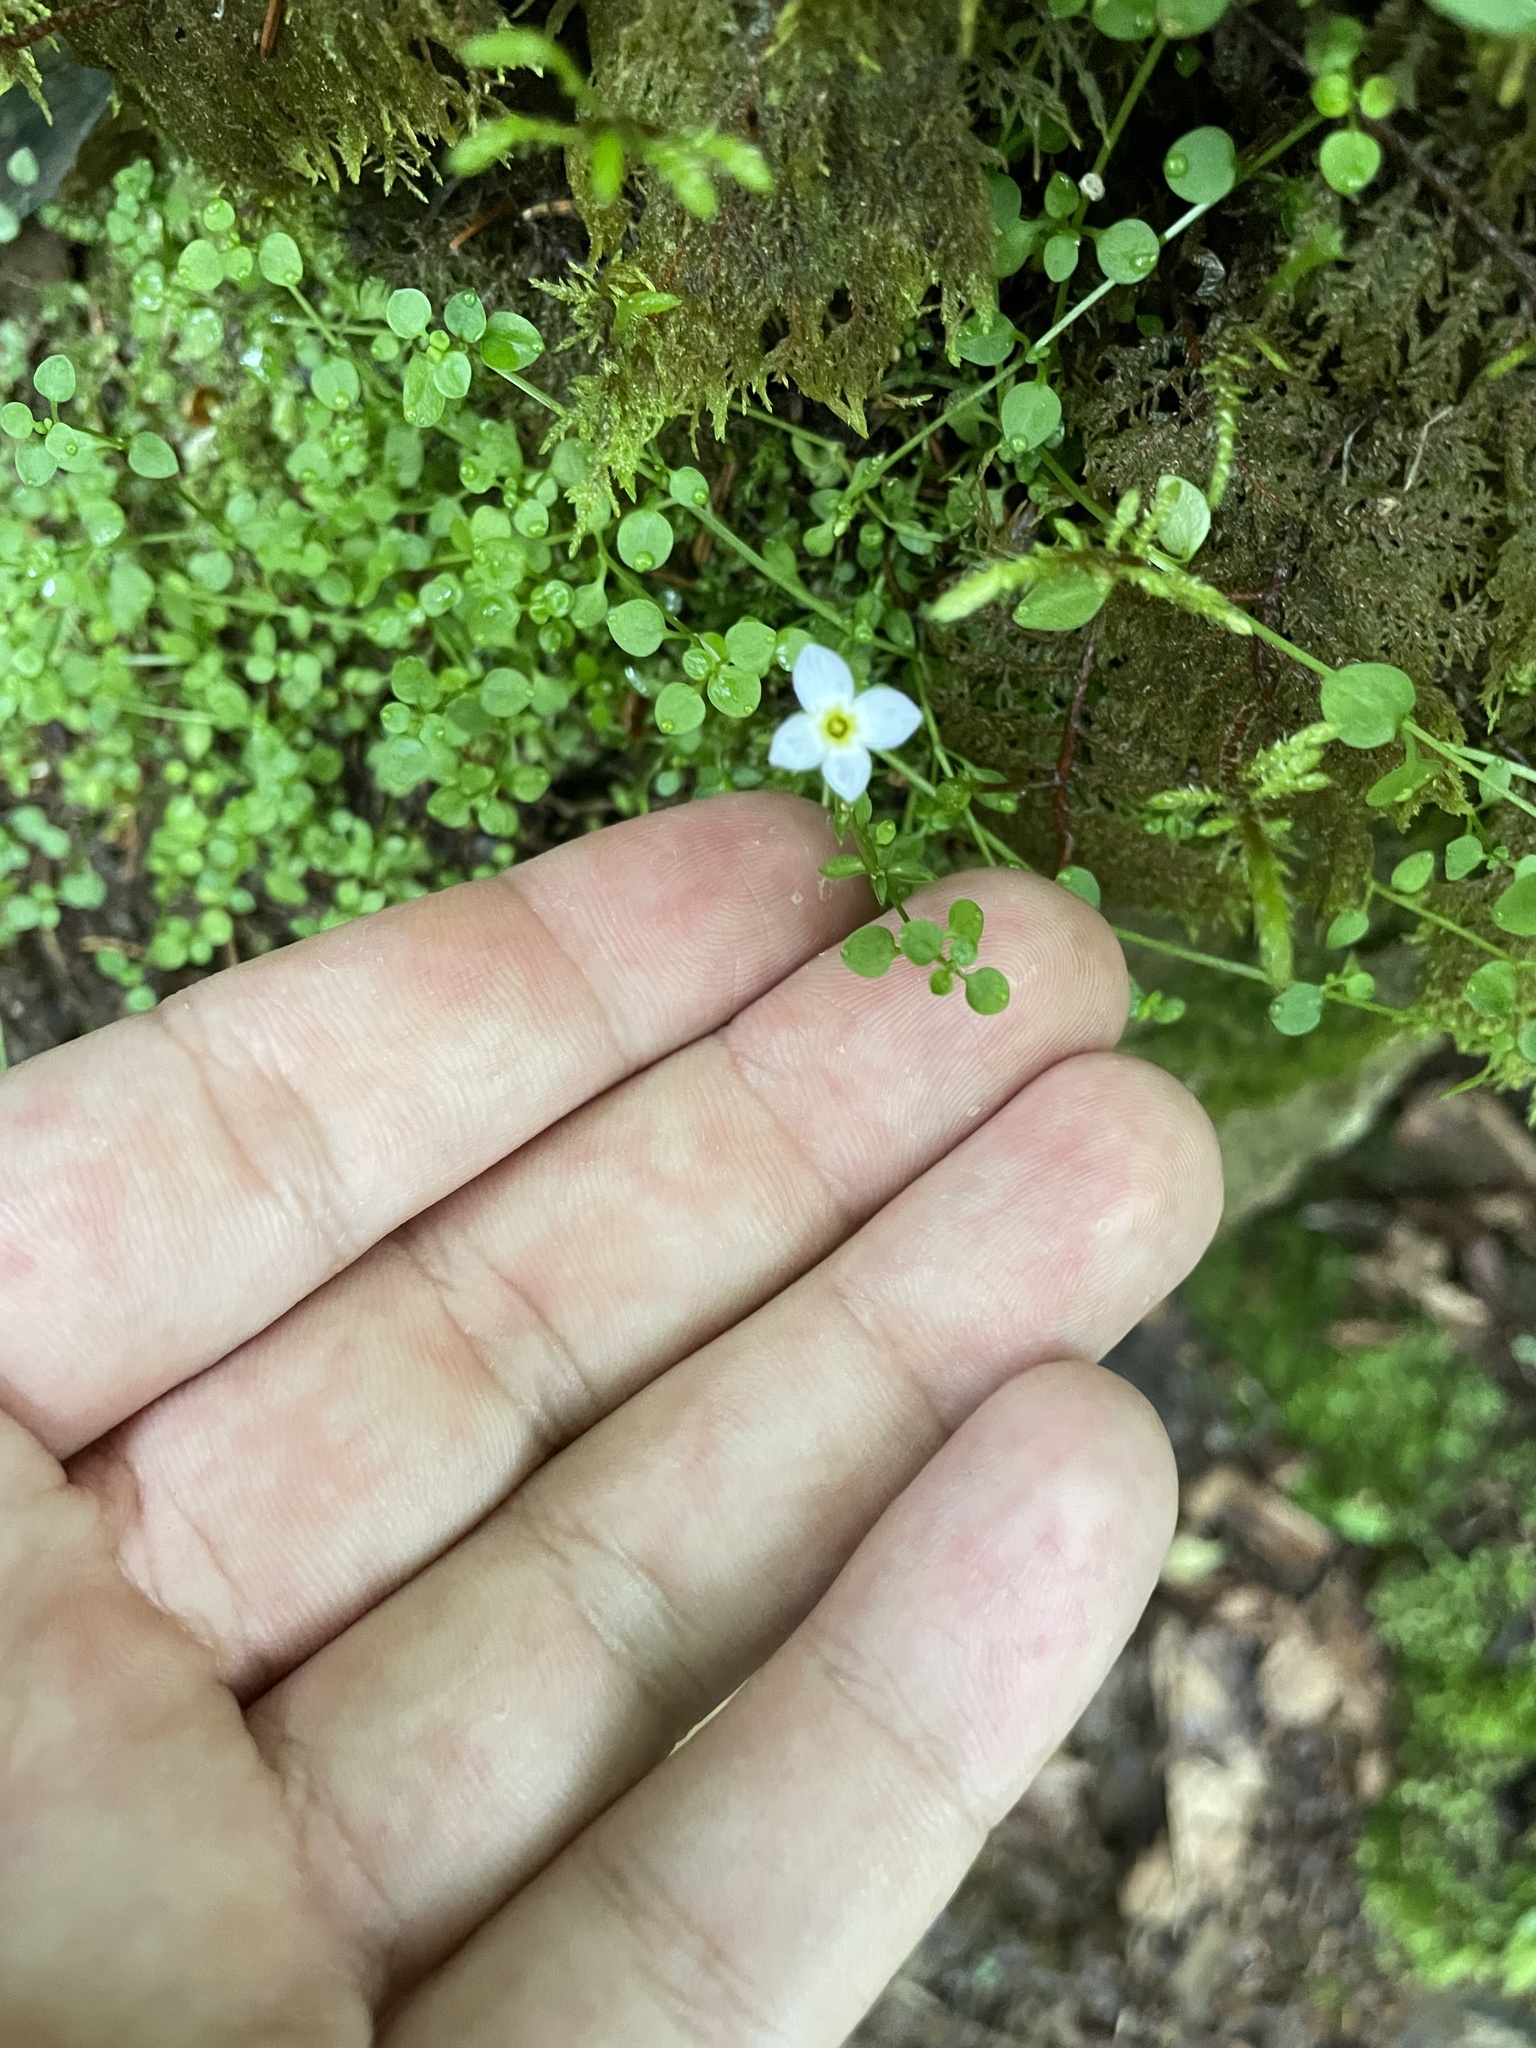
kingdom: Plantae
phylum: Tracheophyta
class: Magnoliopsida
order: Gentianales
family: Rubiaceae
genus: Houstonia
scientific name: Houstonia serpyllifolia
